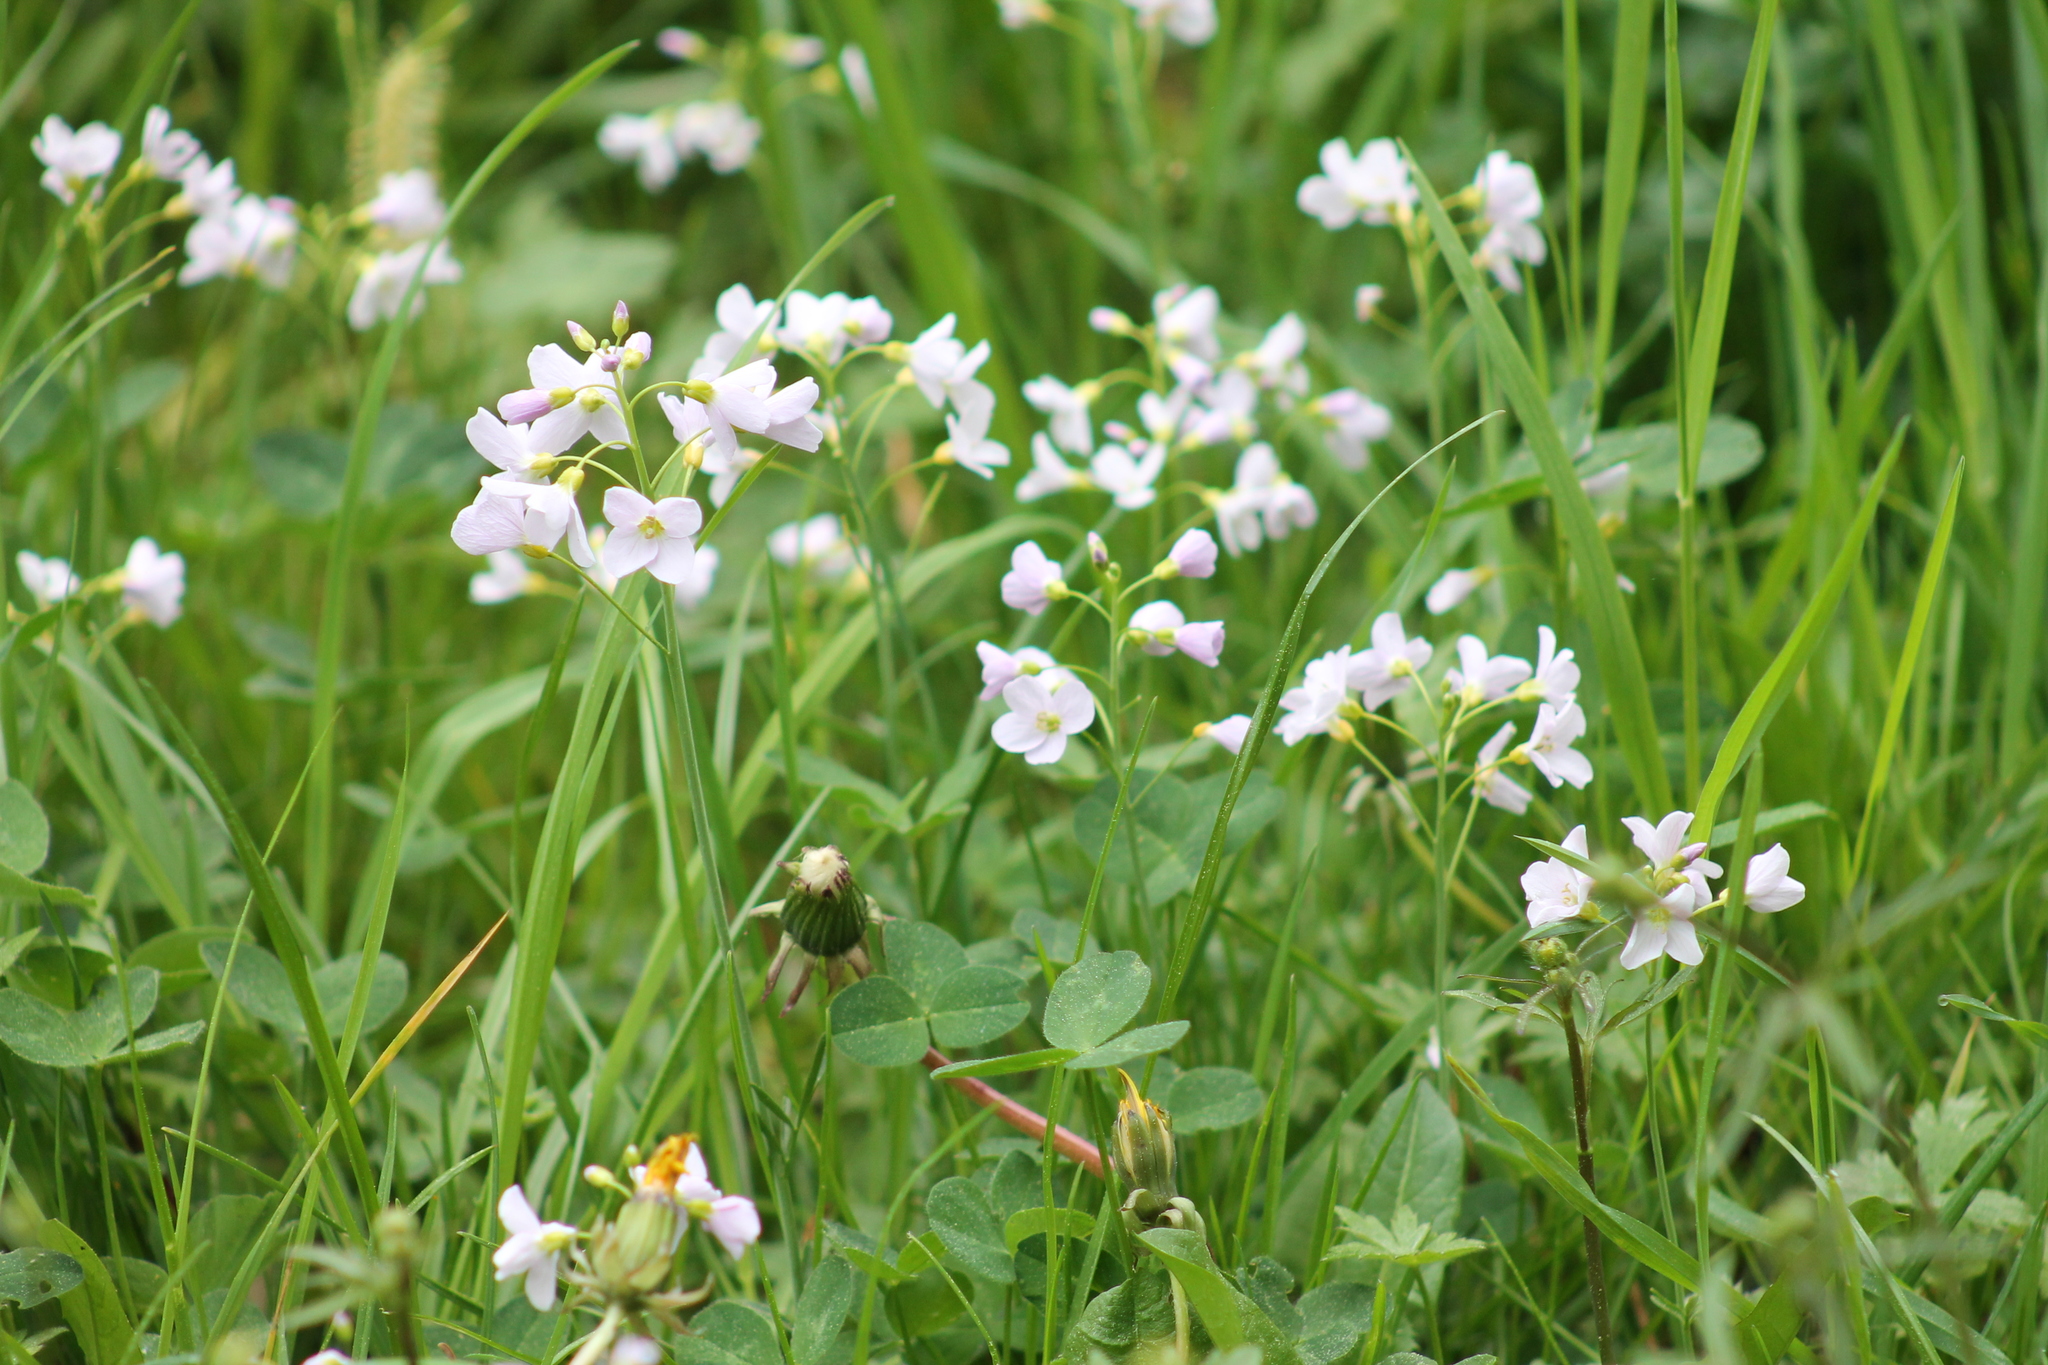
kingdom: Plantae
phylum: Tracheophyta
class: Magnoliopsida
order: Brassicales
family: Brassicaceae
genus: Cardamine
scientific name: Cardamine pratensis
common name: Cuckoo flower
